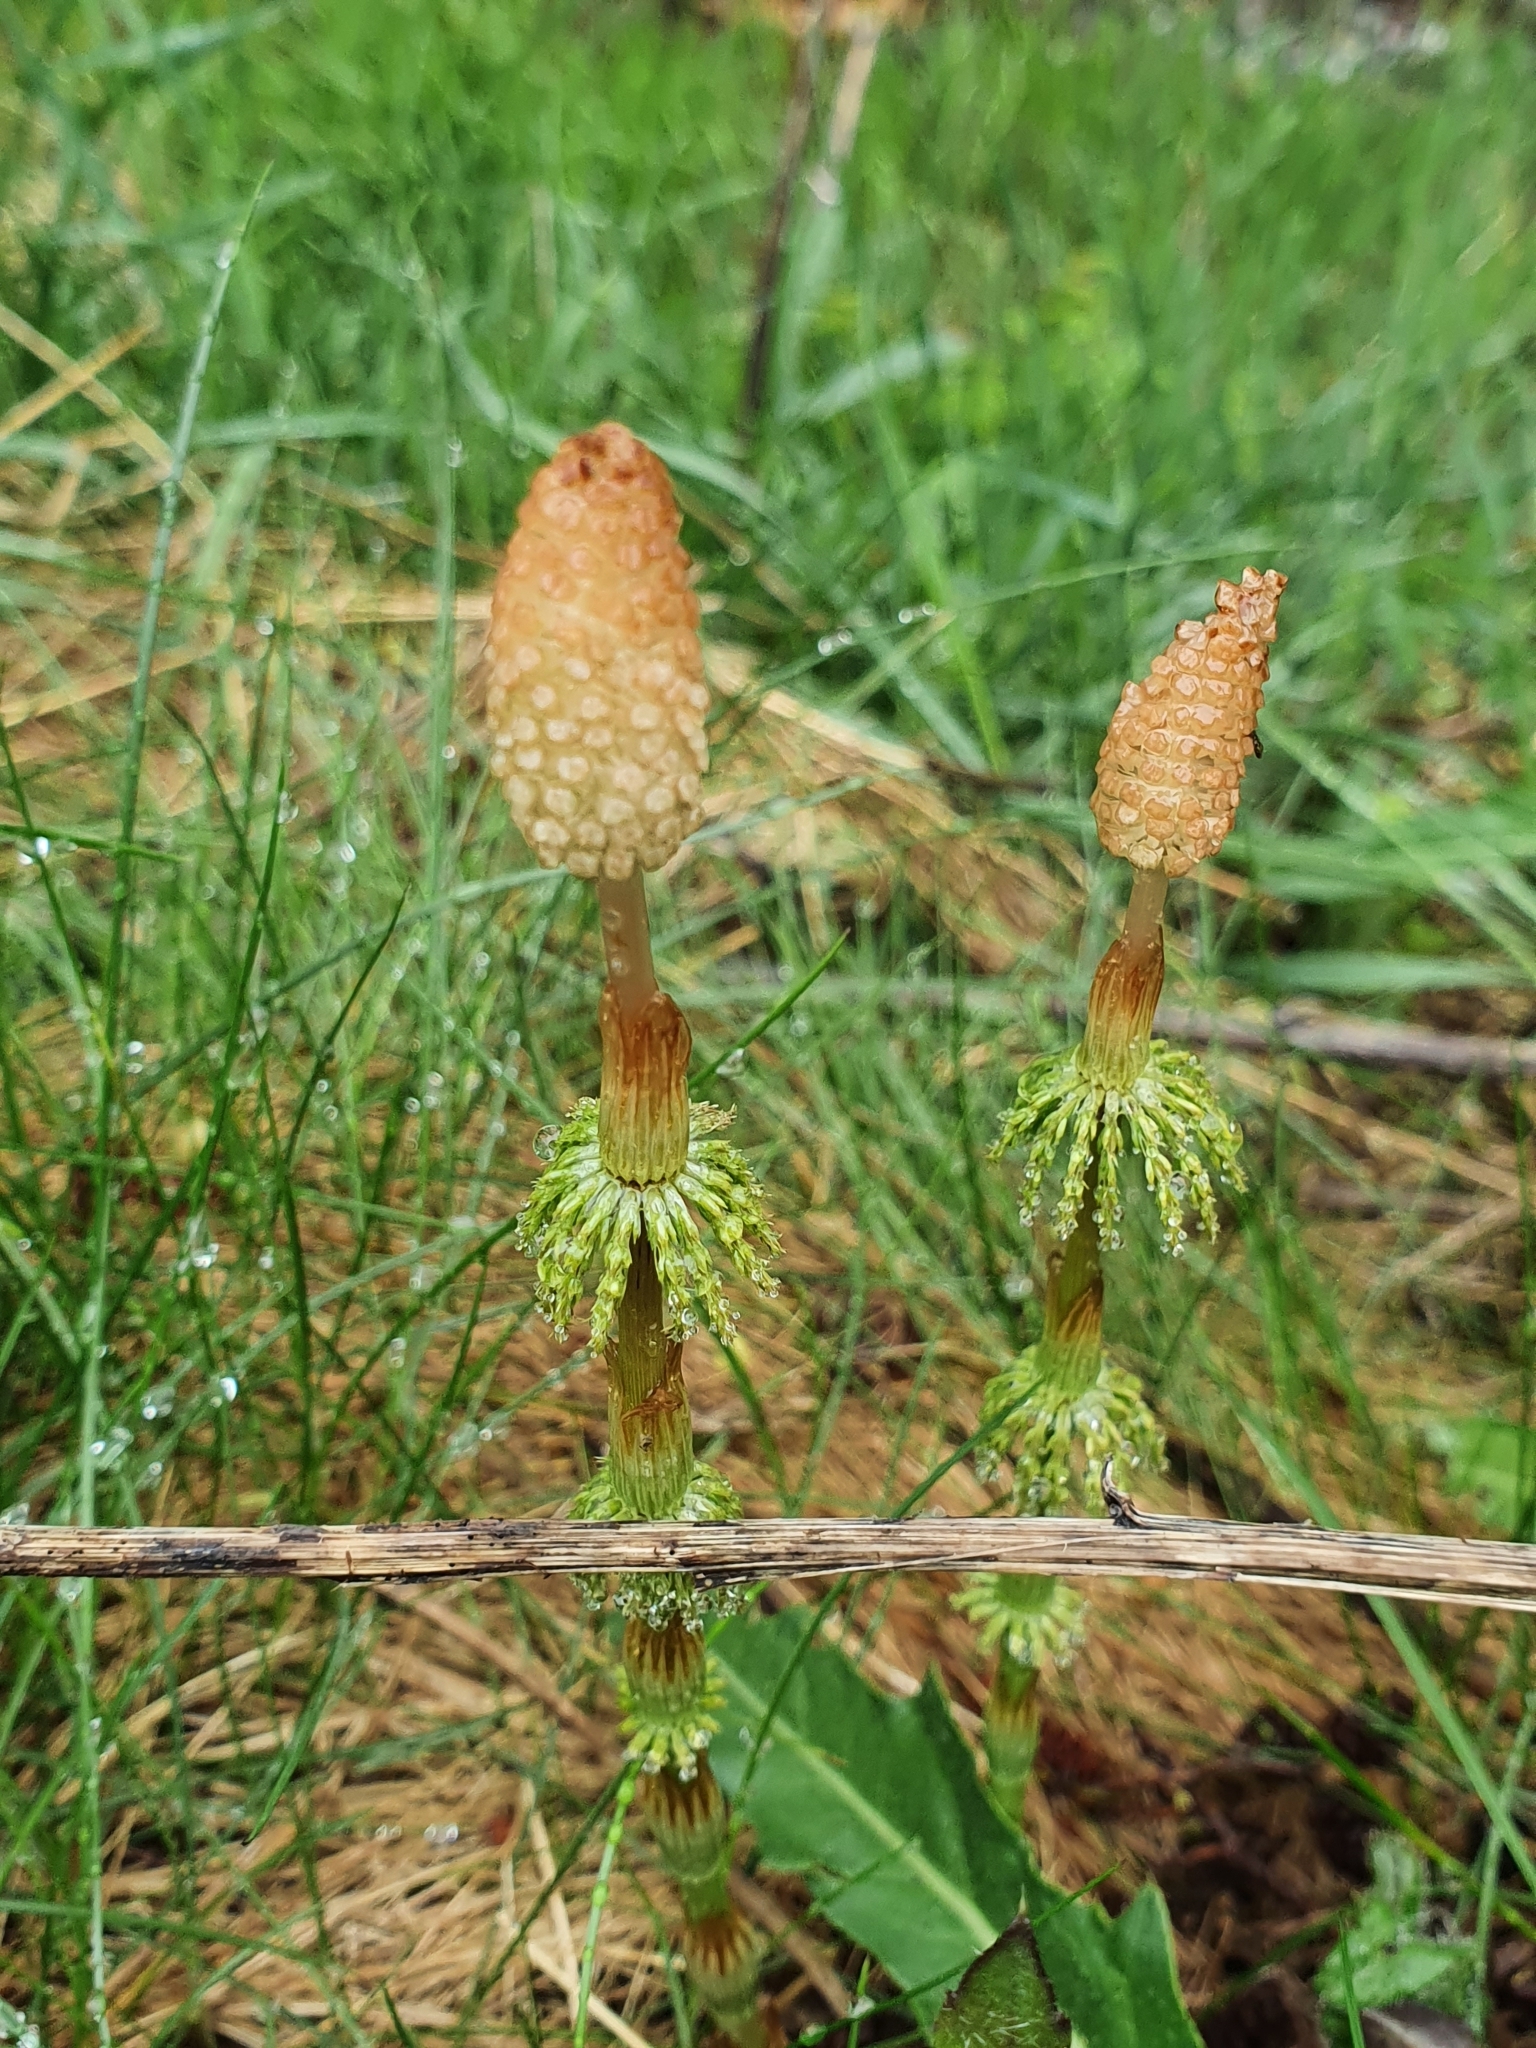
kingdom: Plantae
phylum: Tracheophyta
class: Polypodiopsida
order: Equisetales
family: Equisetaceae
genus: Equisetum
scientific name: Equisetum sylvaticum
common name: Wood horsetail
